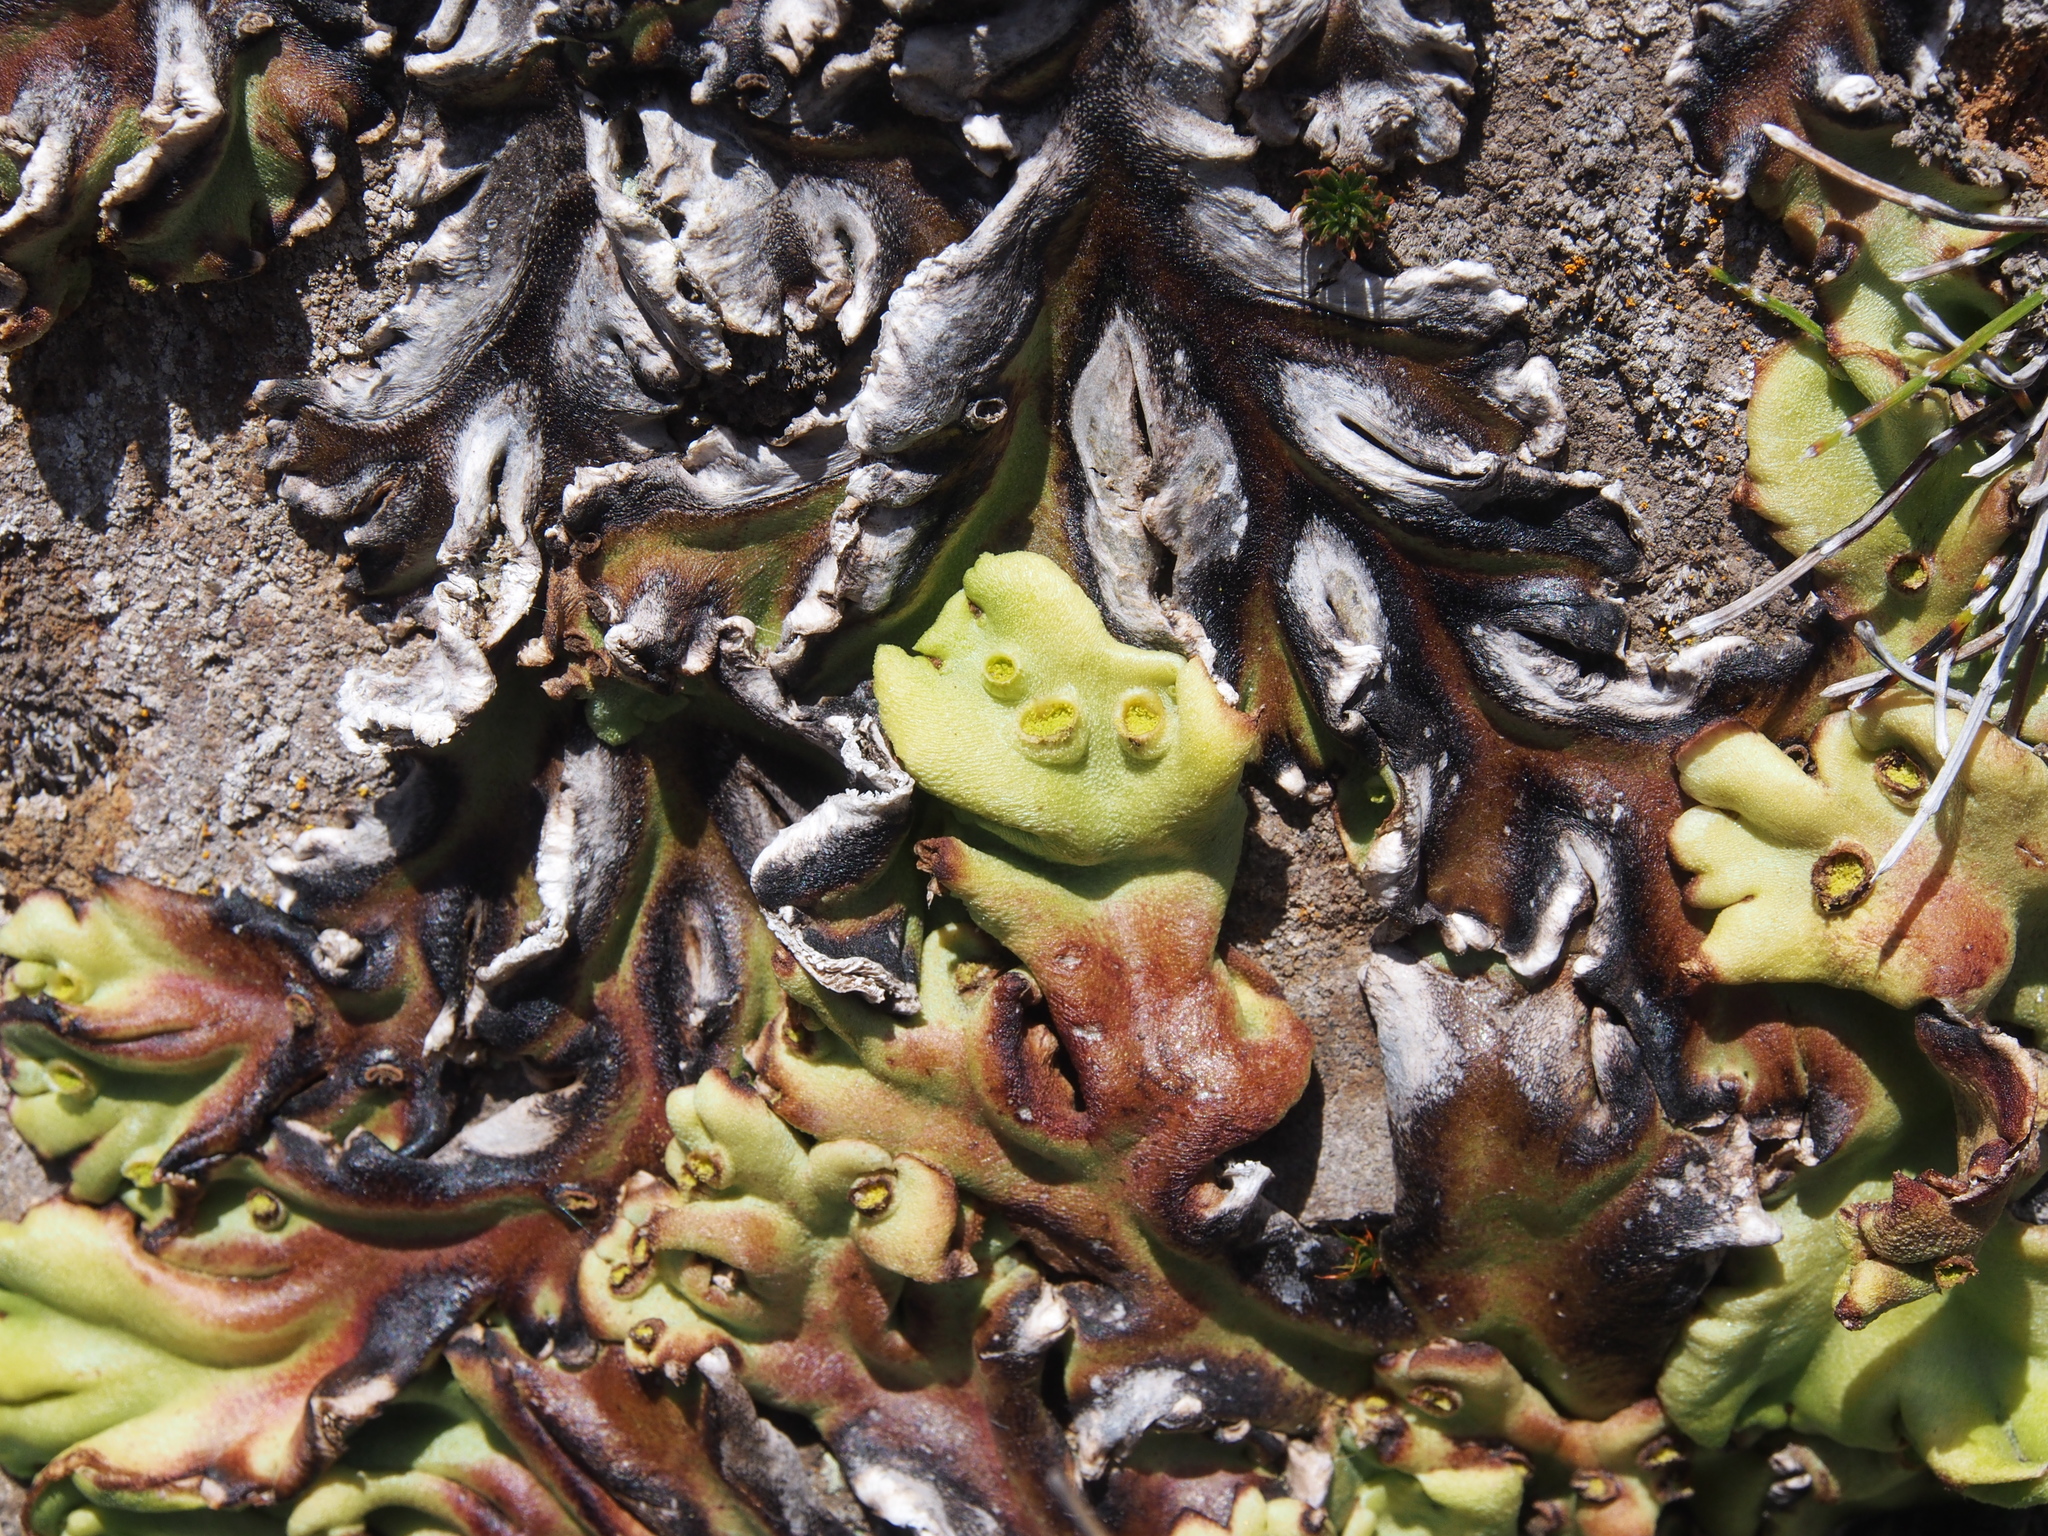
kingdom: Plantae
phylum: Marchantiophyta
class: Marchantiopsida
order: Marchantiales
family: Marchantiaceae
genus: Marchantia
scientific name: Marchantia plicata
